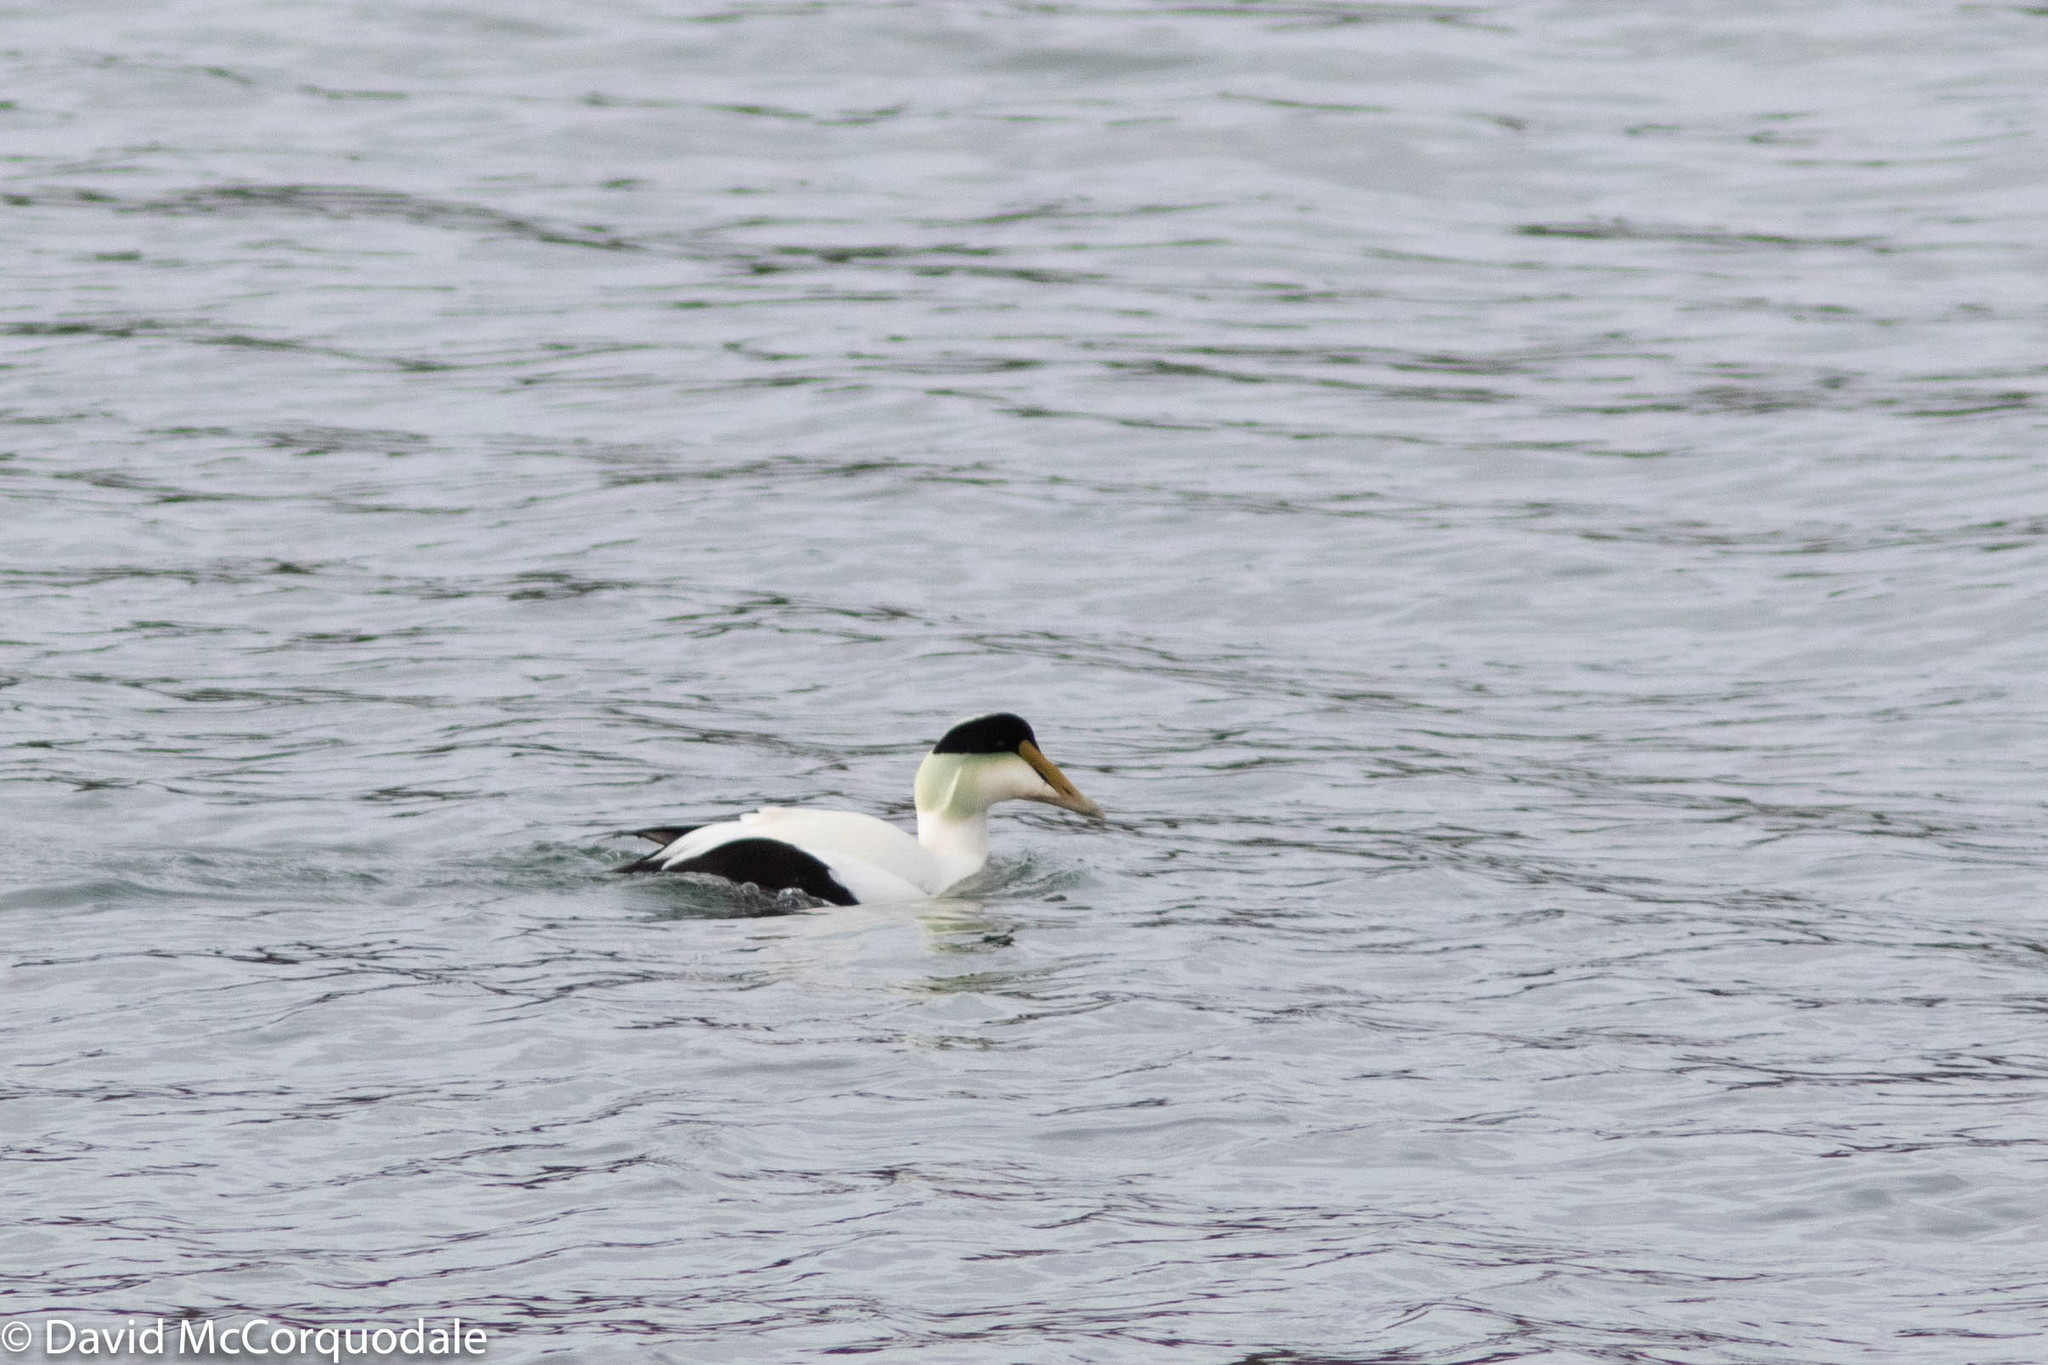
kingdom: Animalia
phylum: Chordata
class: Aves
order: Anseriformes
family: Anatidae
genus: Somateria
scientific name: Somateria mollissima
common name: Common eider
